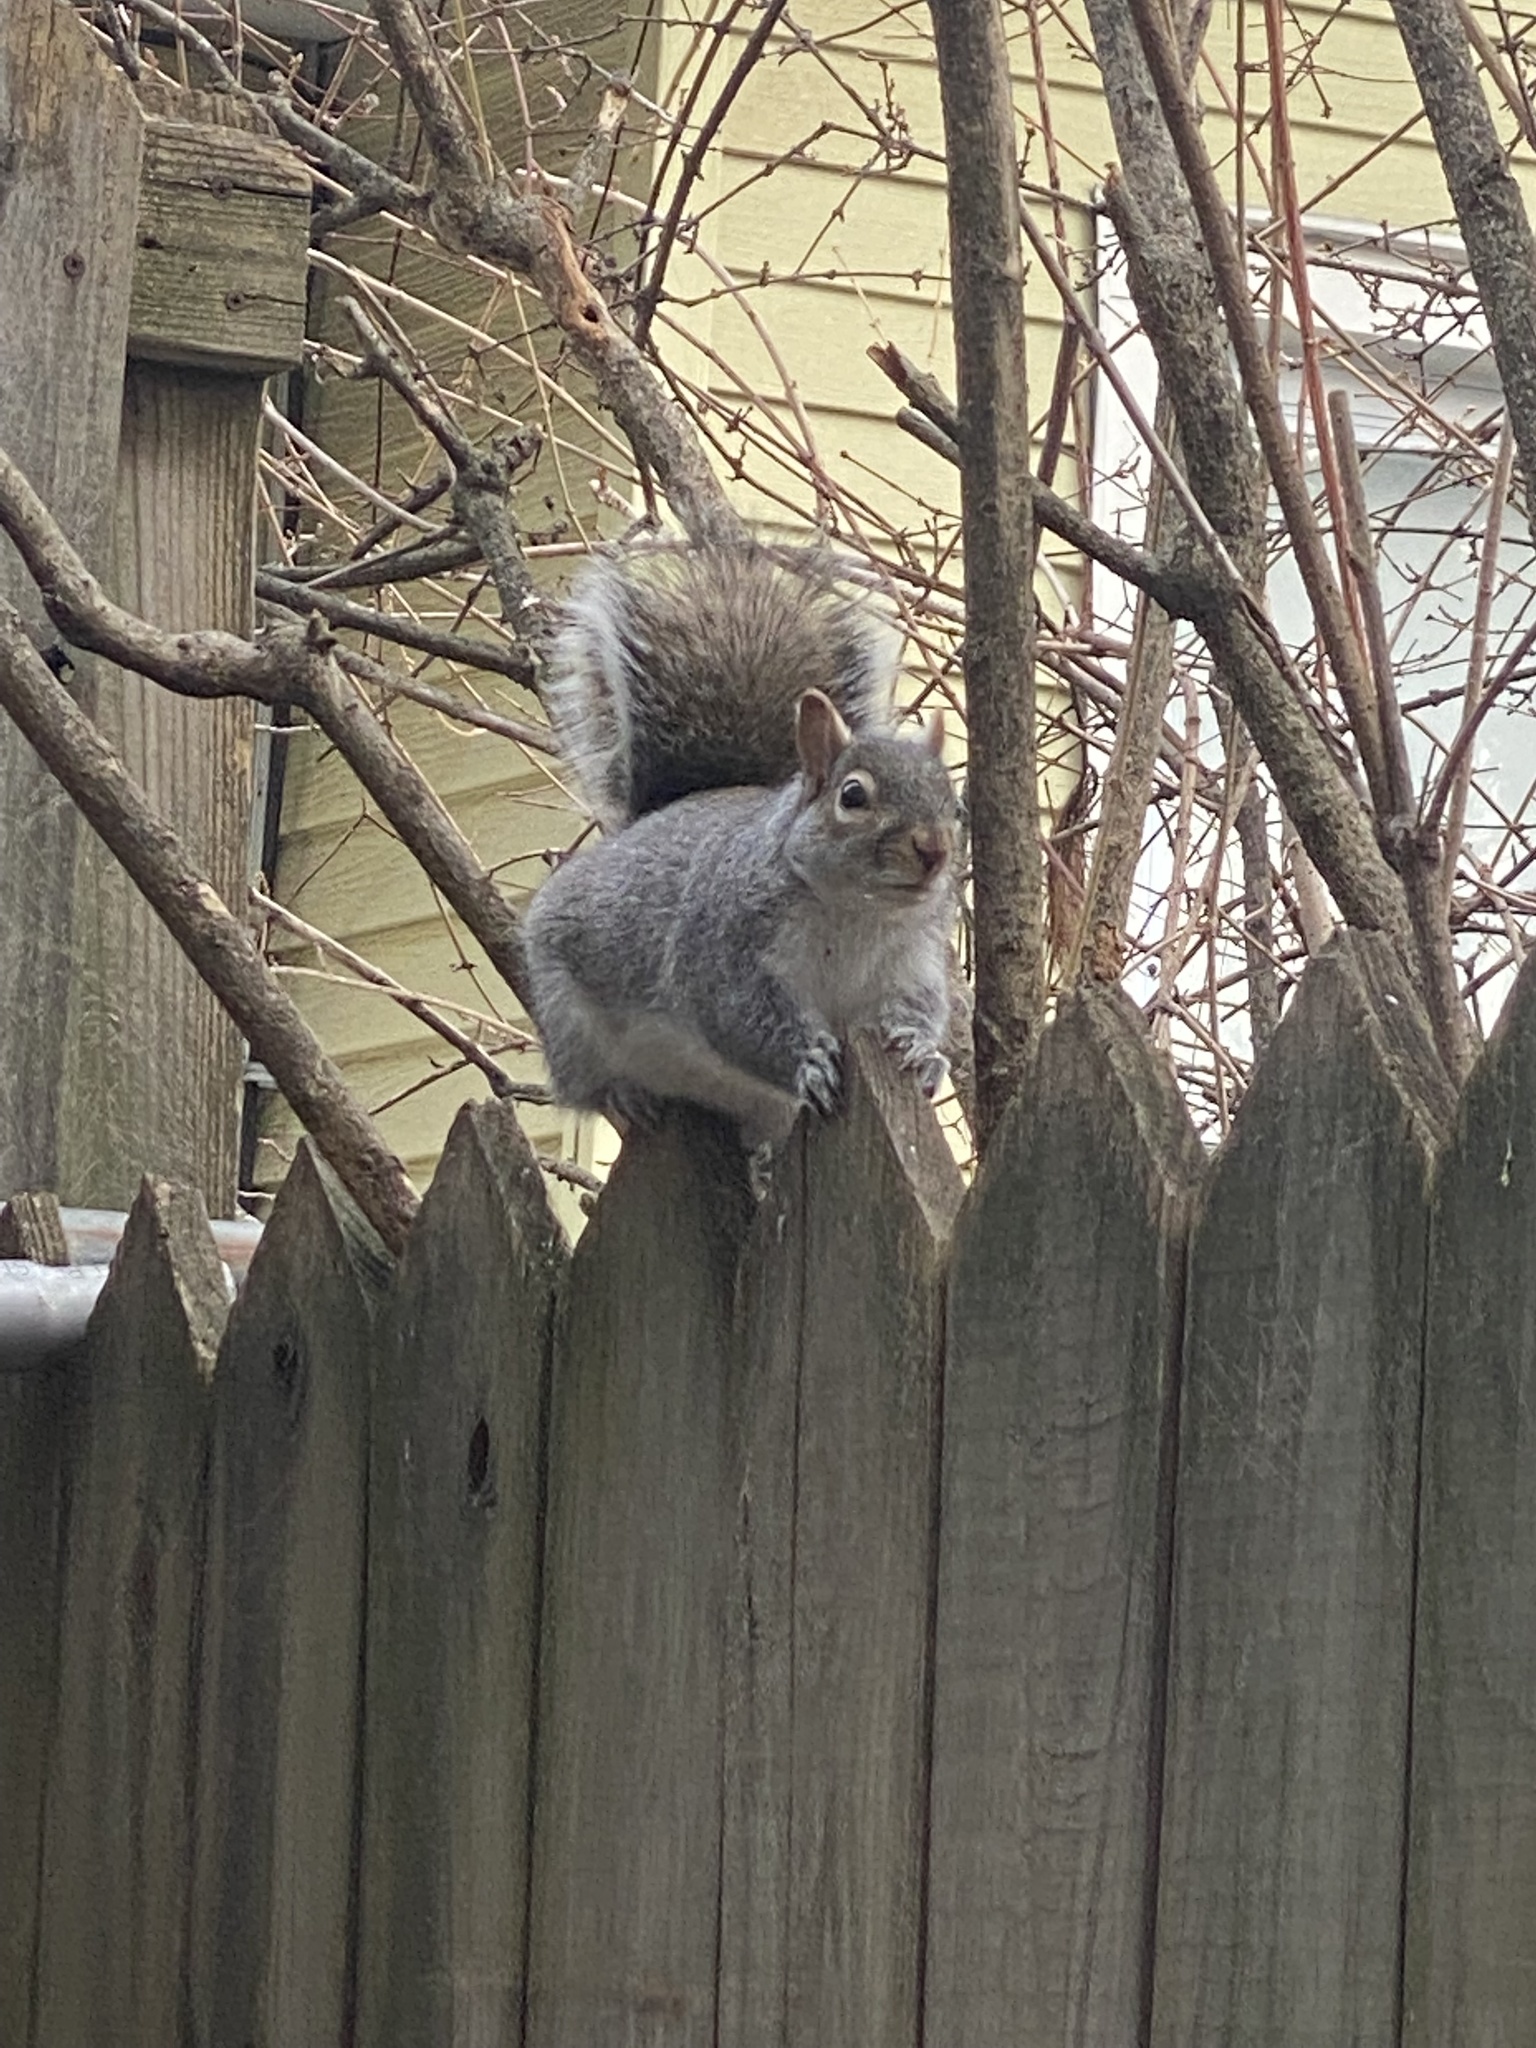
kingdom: Animalia
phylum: Chordata
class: Mammalia
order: Rodentia
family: Sciuridae
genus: Sciurus
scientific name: Sciurus carolinensis
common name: Eastern gray squirrel
